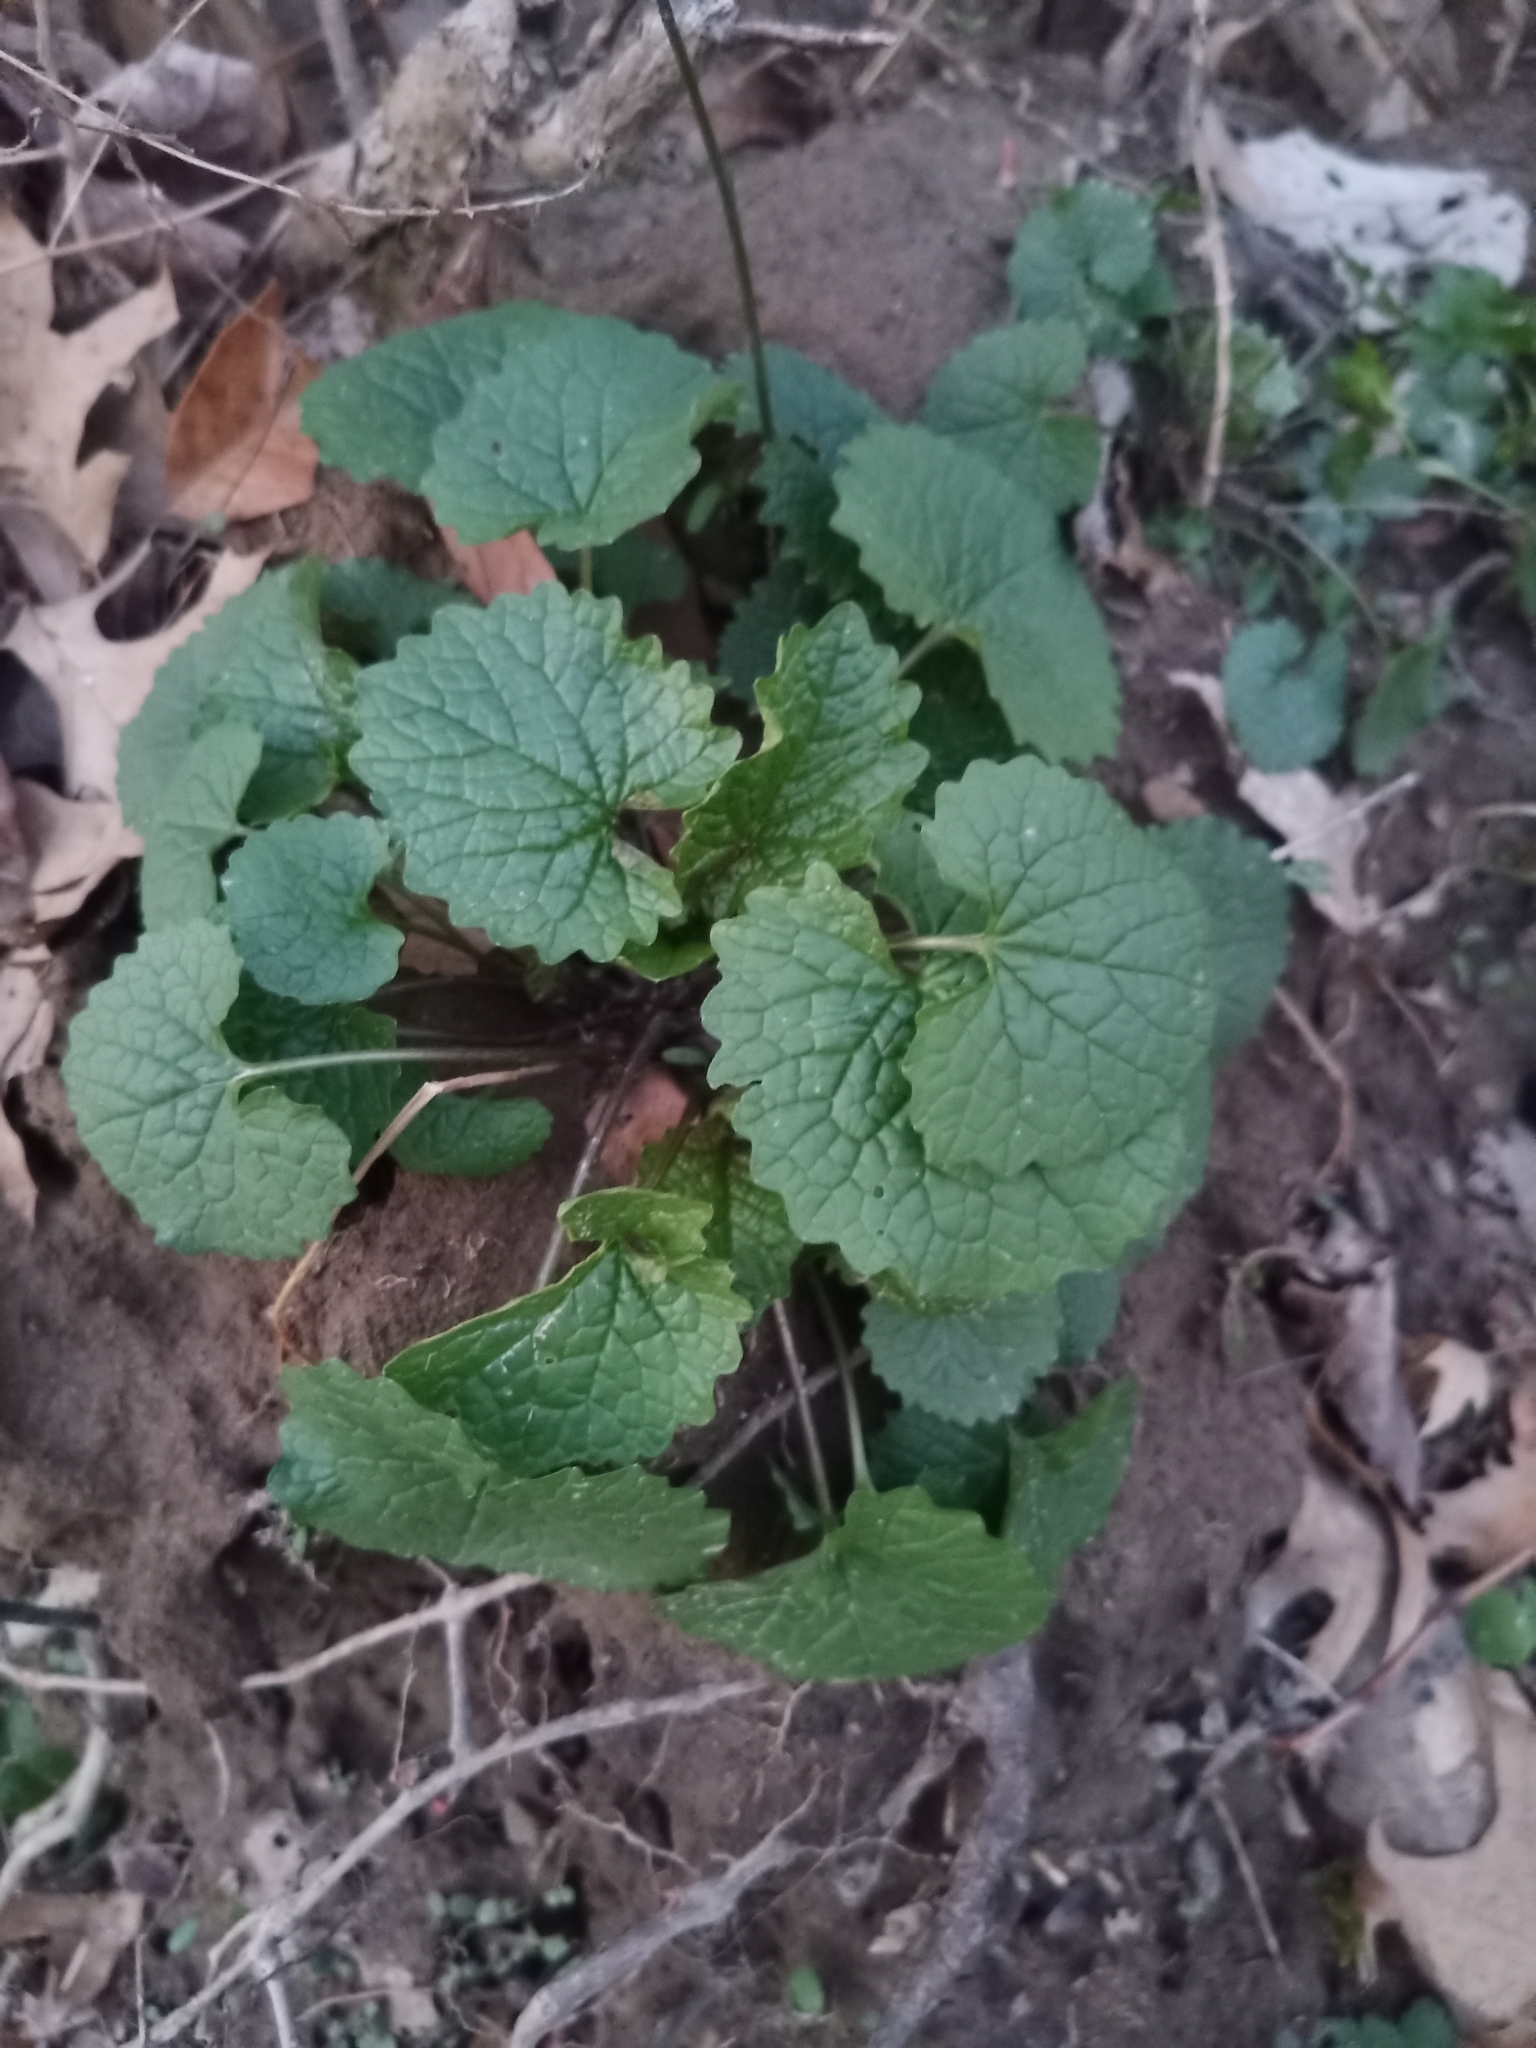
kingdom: Plantae
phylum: Tracheophyta
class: Magnoliopsida
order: Brassicales
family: Brassicaceae
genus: Alliaria
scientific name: Alliaria petiolata
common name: Garlic mustard
